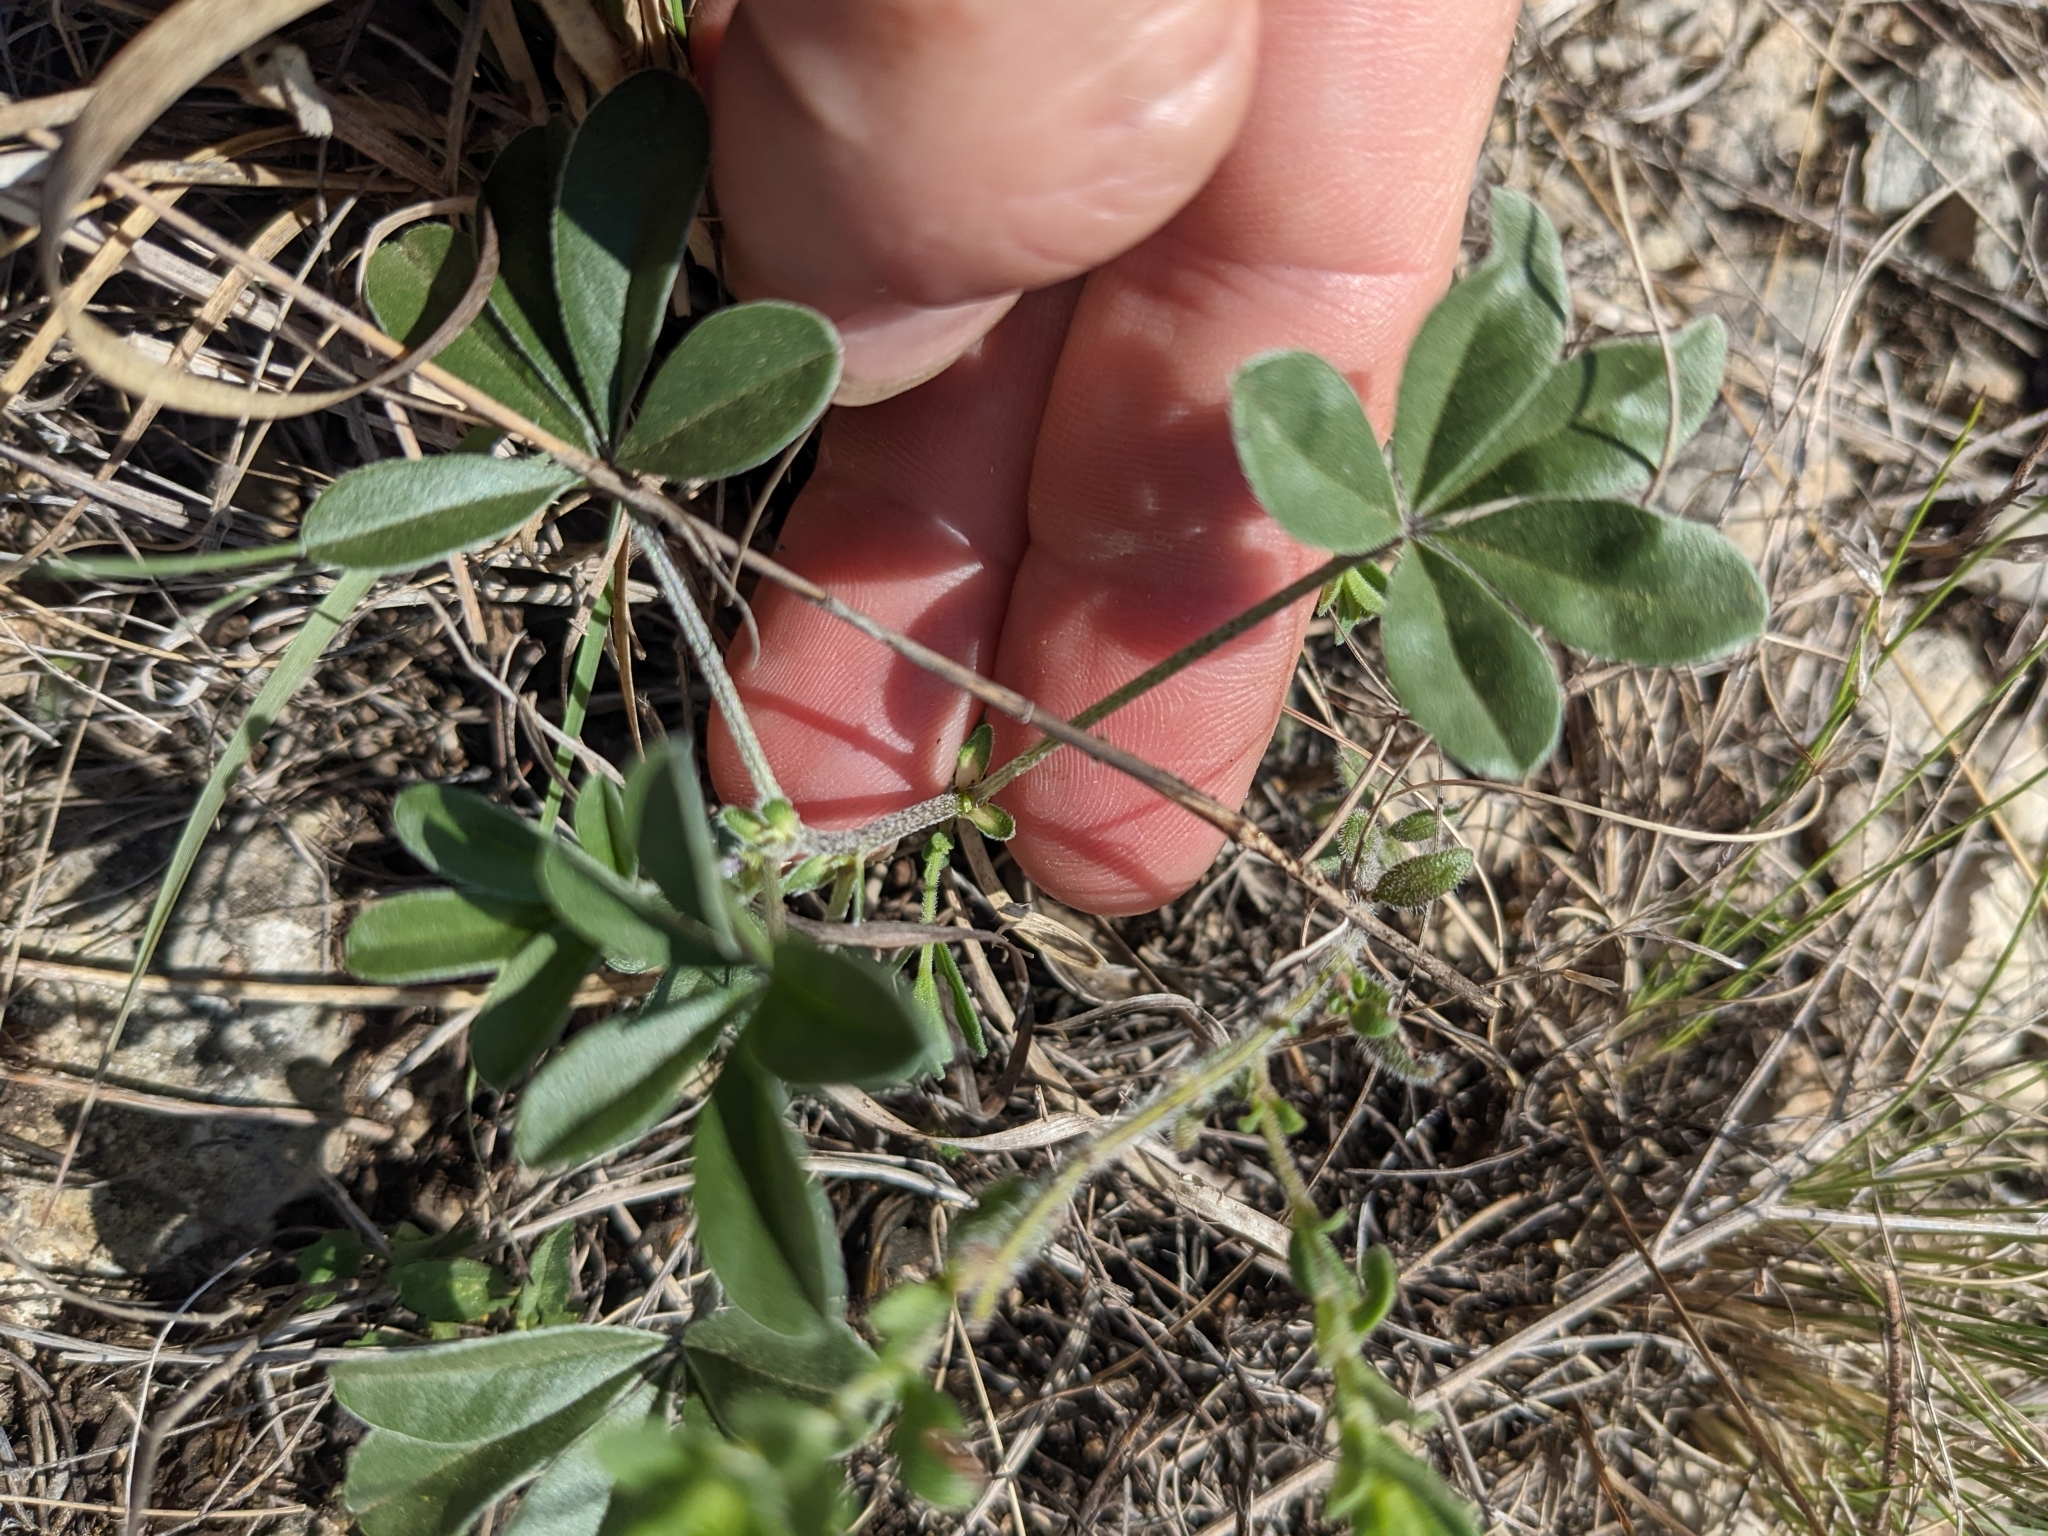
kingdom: Plantae
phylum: Tracheophyta
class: Magnoliopsida
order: Fabales
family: Fabaceae
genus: Pediomelum
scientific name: Pediomelum latestipulatum
